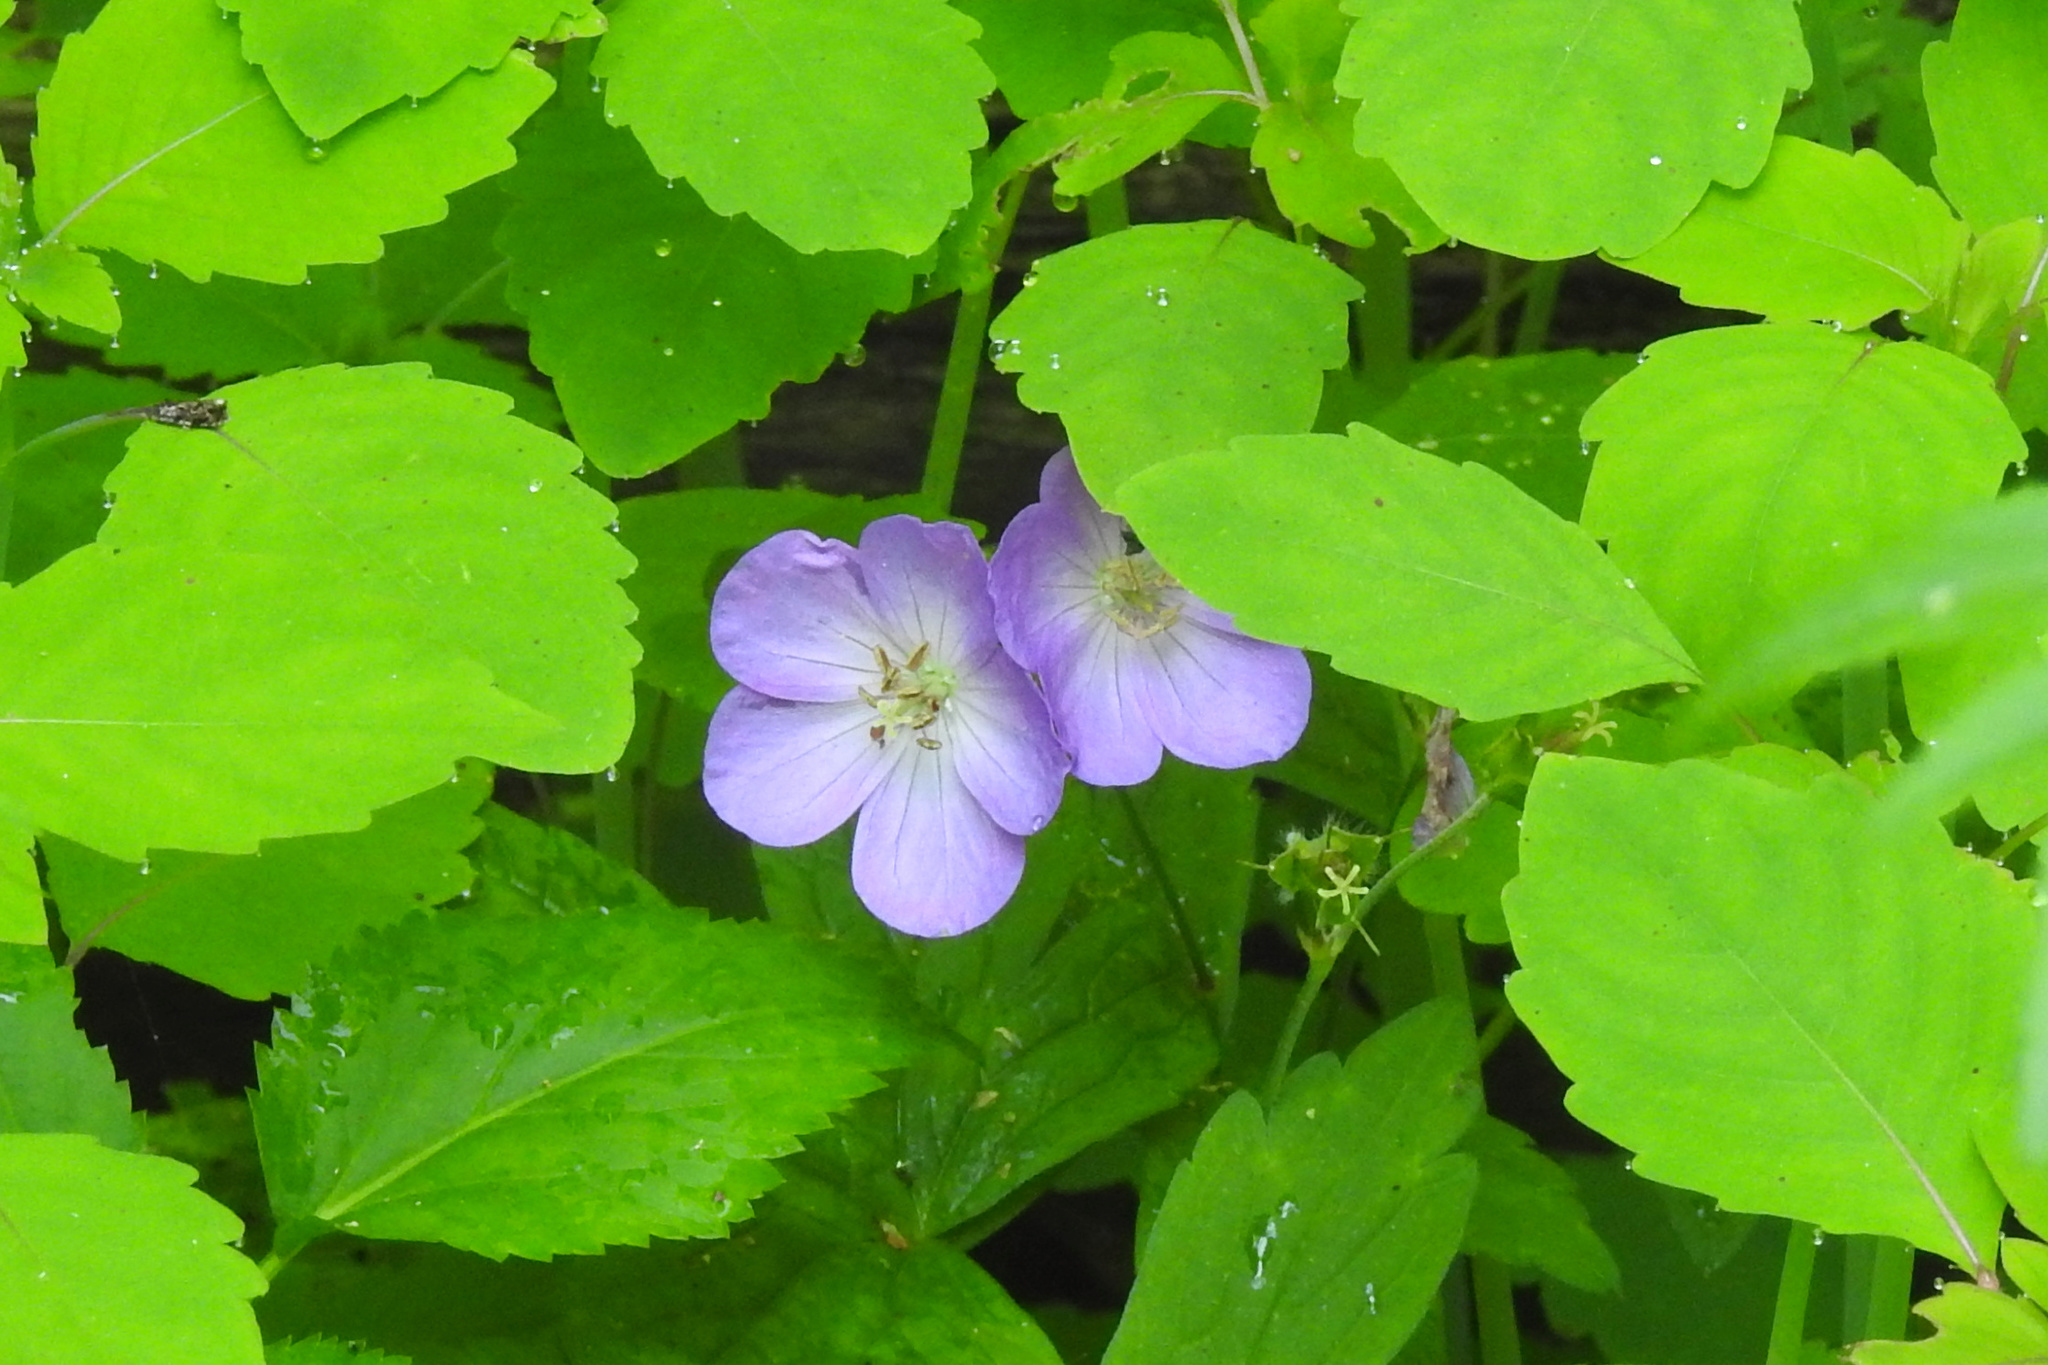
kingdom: Plantae
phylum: Tracheophyta
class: Magnoliopsida
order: Geraniales
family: Geraniaceae
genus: Geranium
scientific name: Geranium maculatum
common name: Spotted geranium
